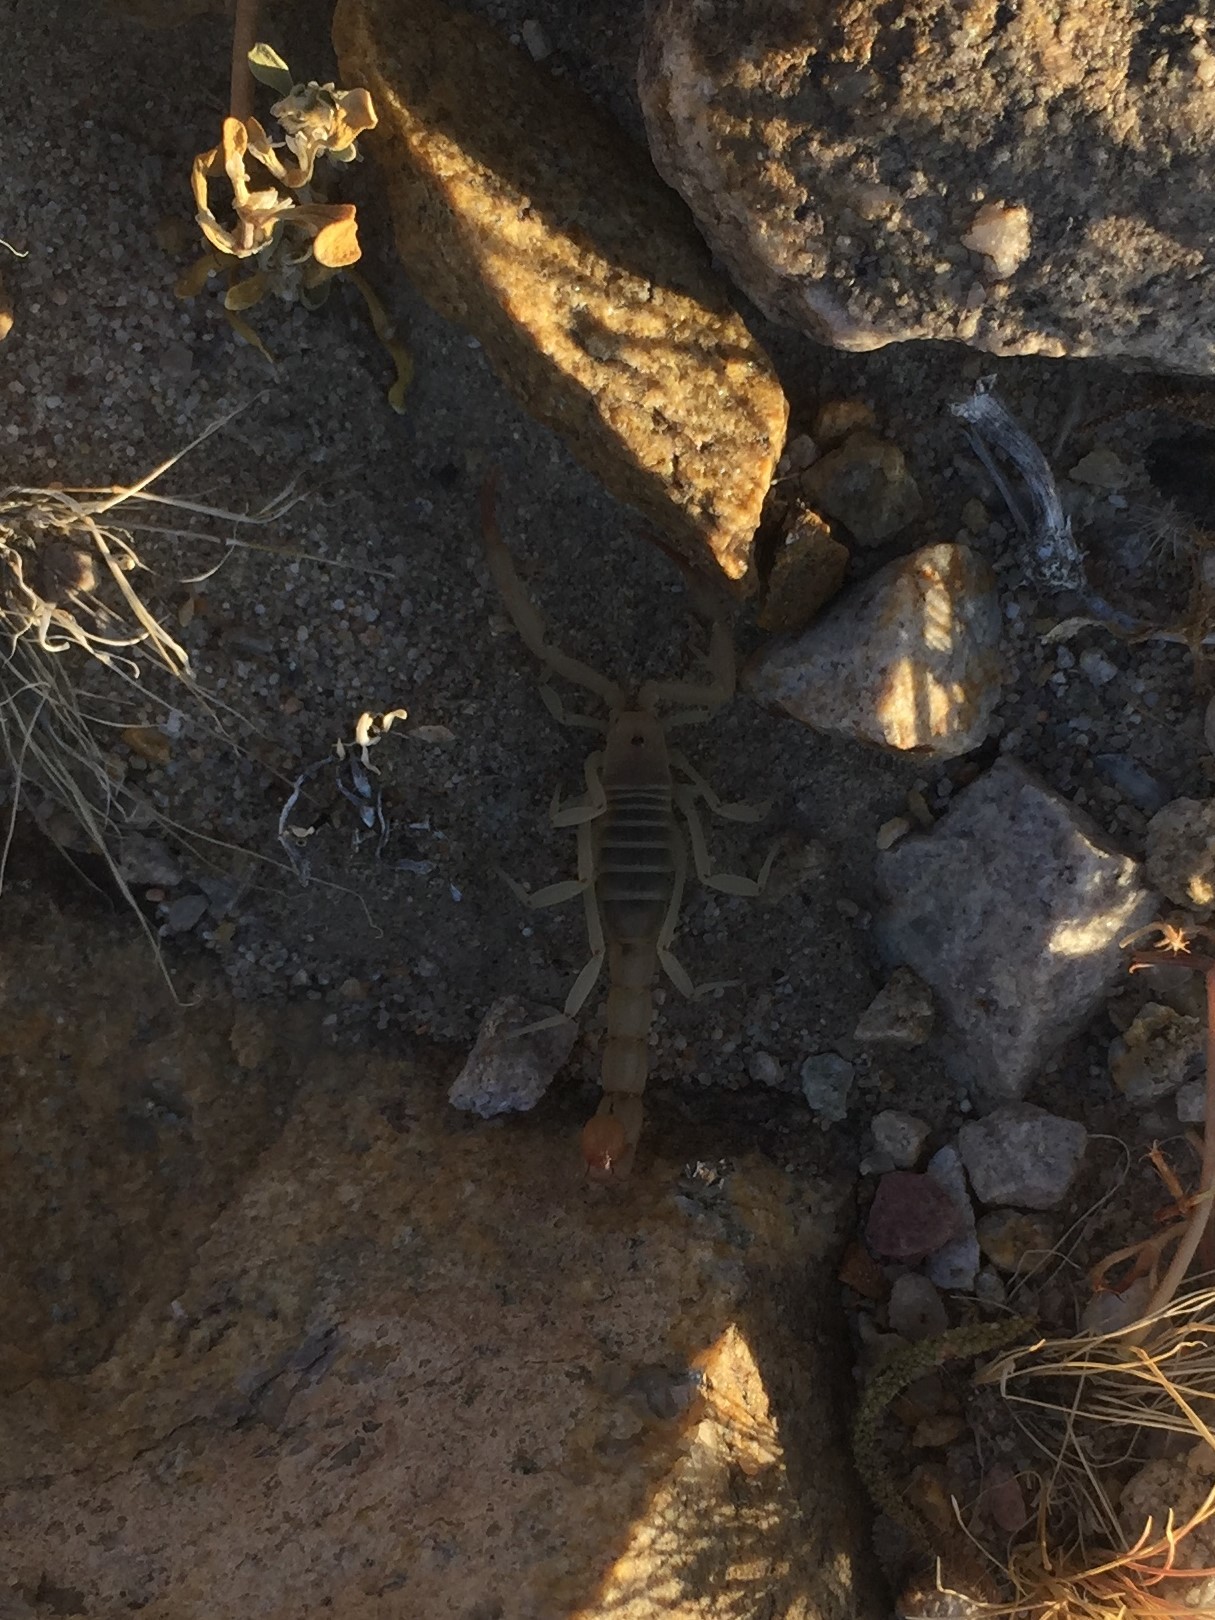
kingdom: Animalia
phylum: Arthropoda
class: Arachnida
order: Scorpiones
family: Vaejovidae
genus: Paravaejovis
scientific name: Paravaejovis confusus
